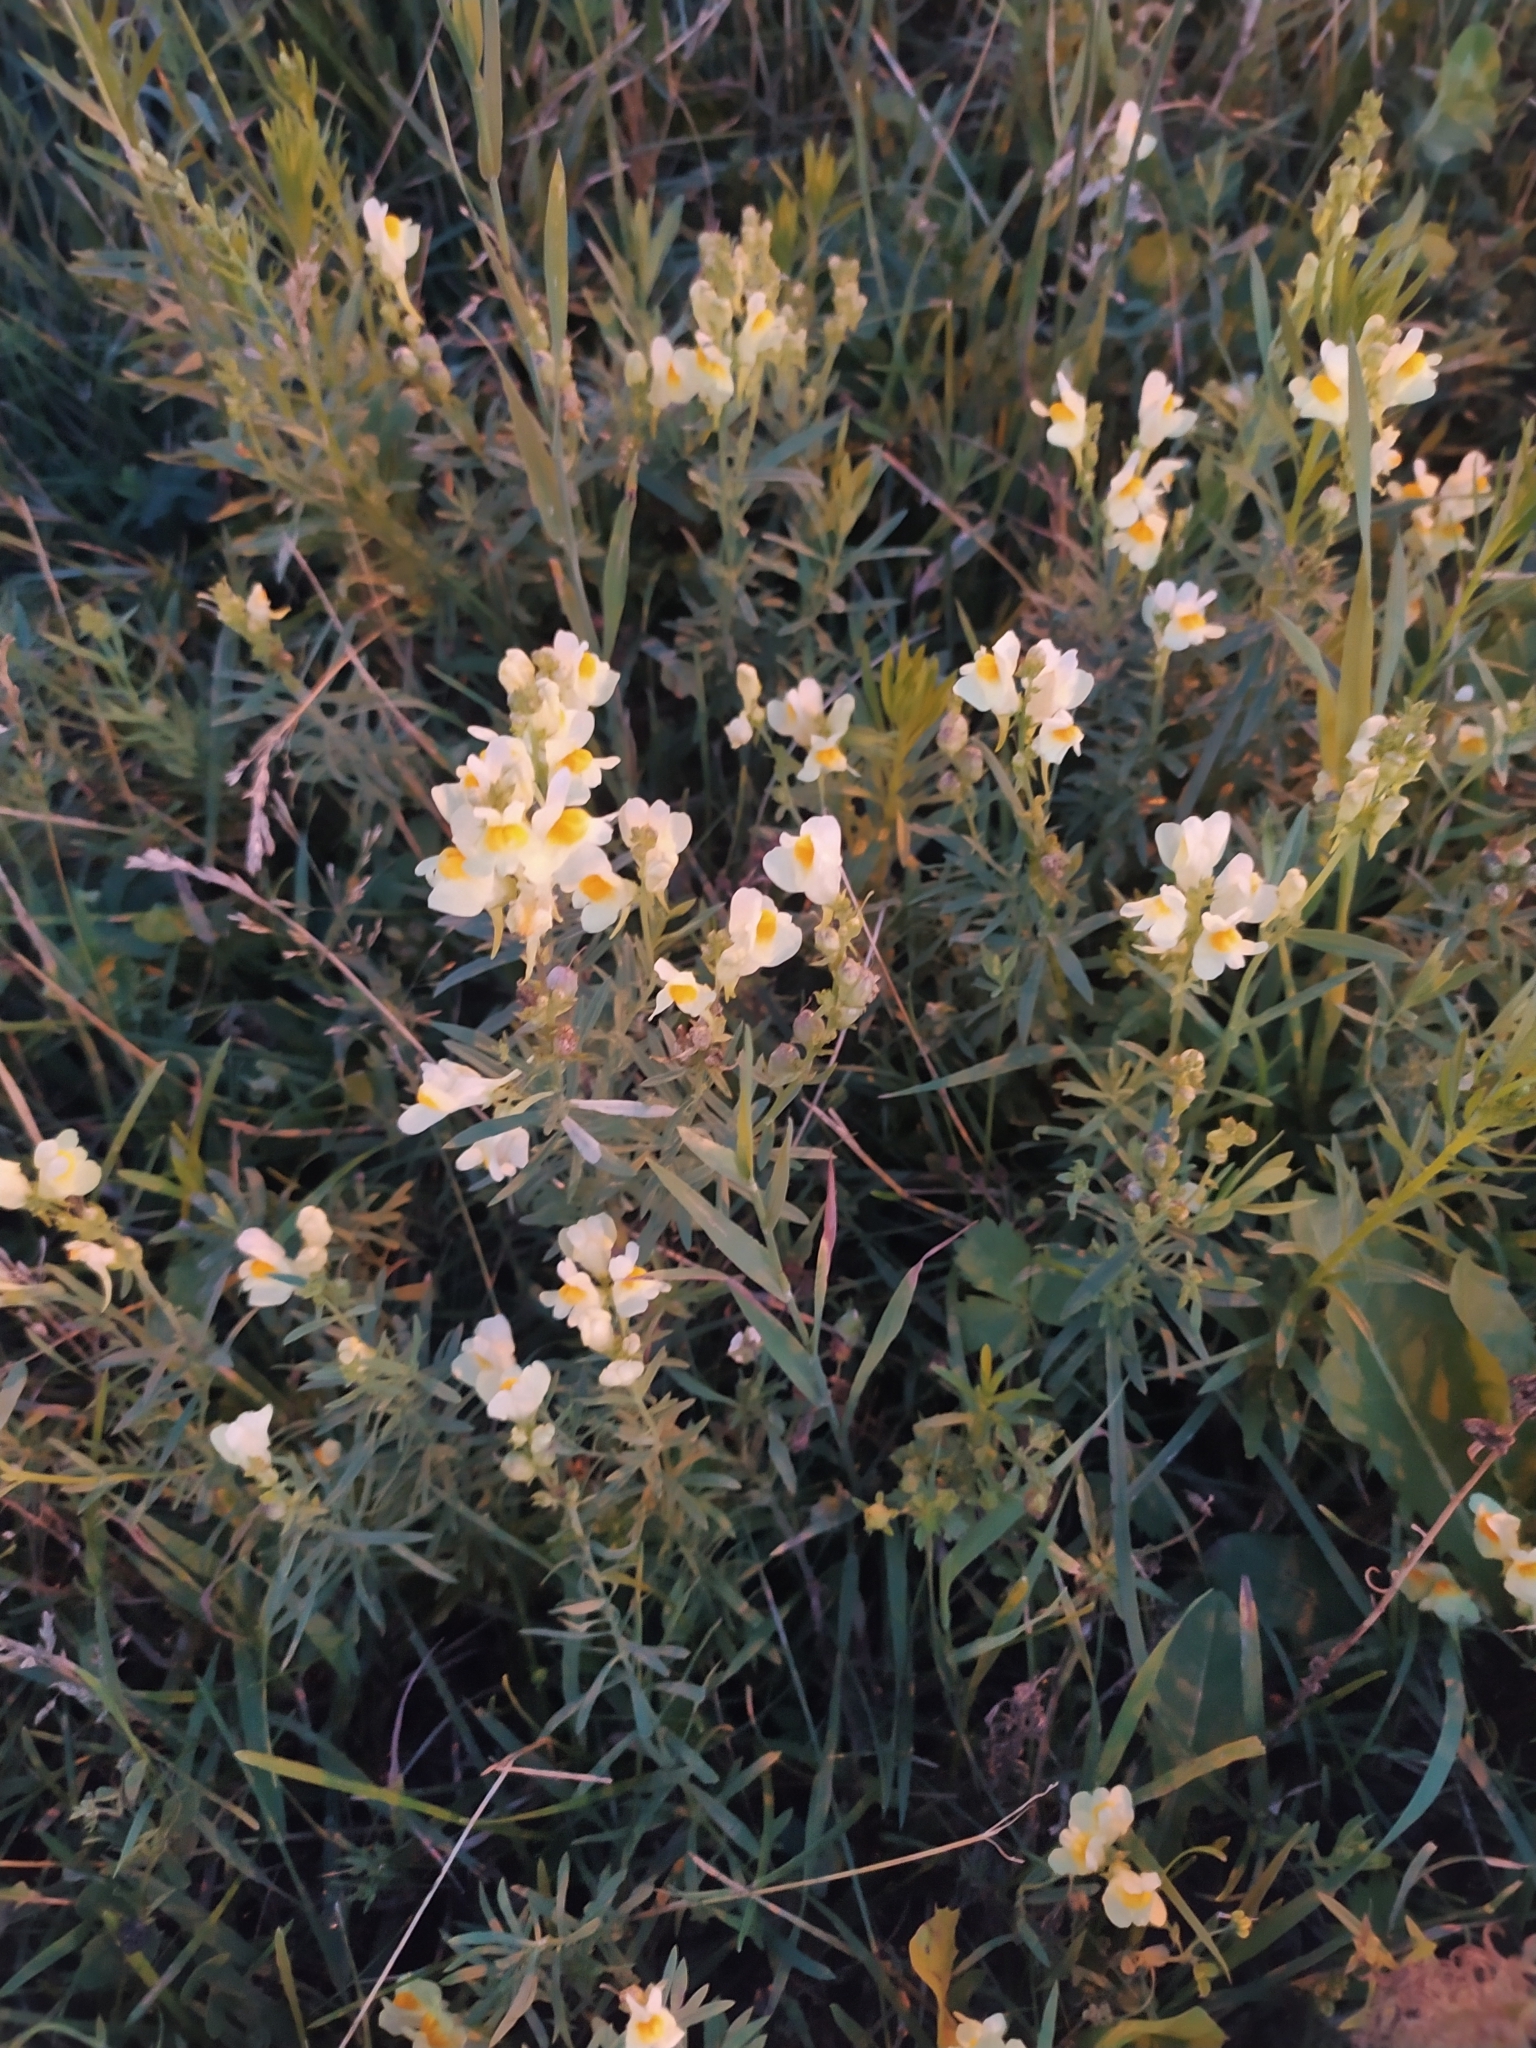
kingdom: Plantae
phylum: Tracheophyta
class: Magnoliopsida
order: Lamiales
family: Plantaginaceae
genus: Linaria
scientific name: Linaria vulgaris
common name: Butter and eggs
